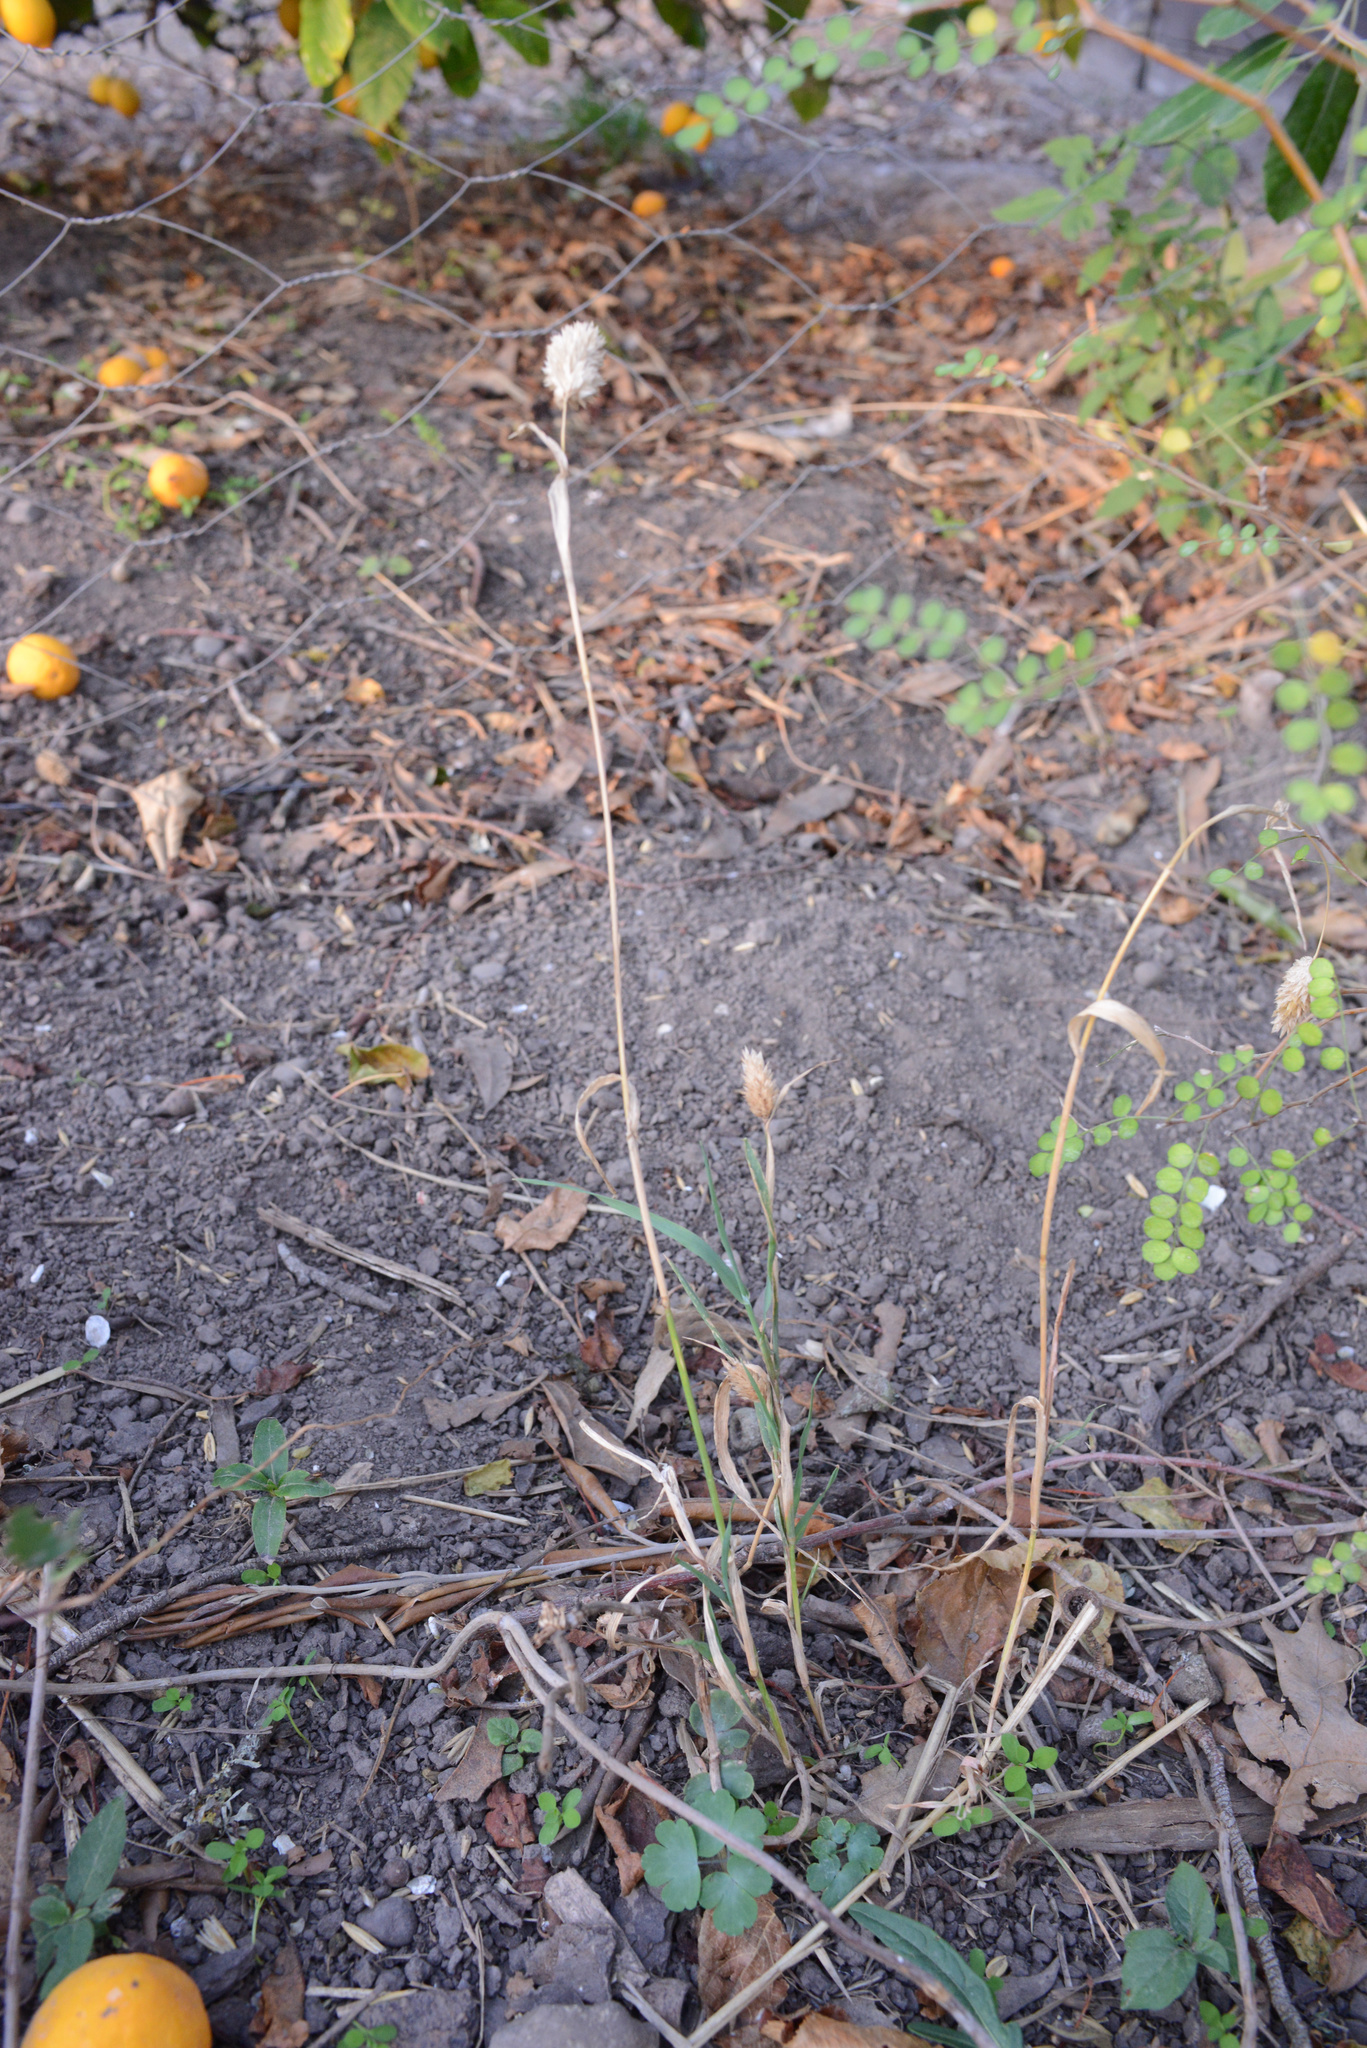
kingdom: Plantae
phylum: Tracheophyta
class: Liliopsida
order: Poales
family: Poaceae
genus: Phalaris
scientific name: Phalaris canariensis
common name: Annual canarygrass
